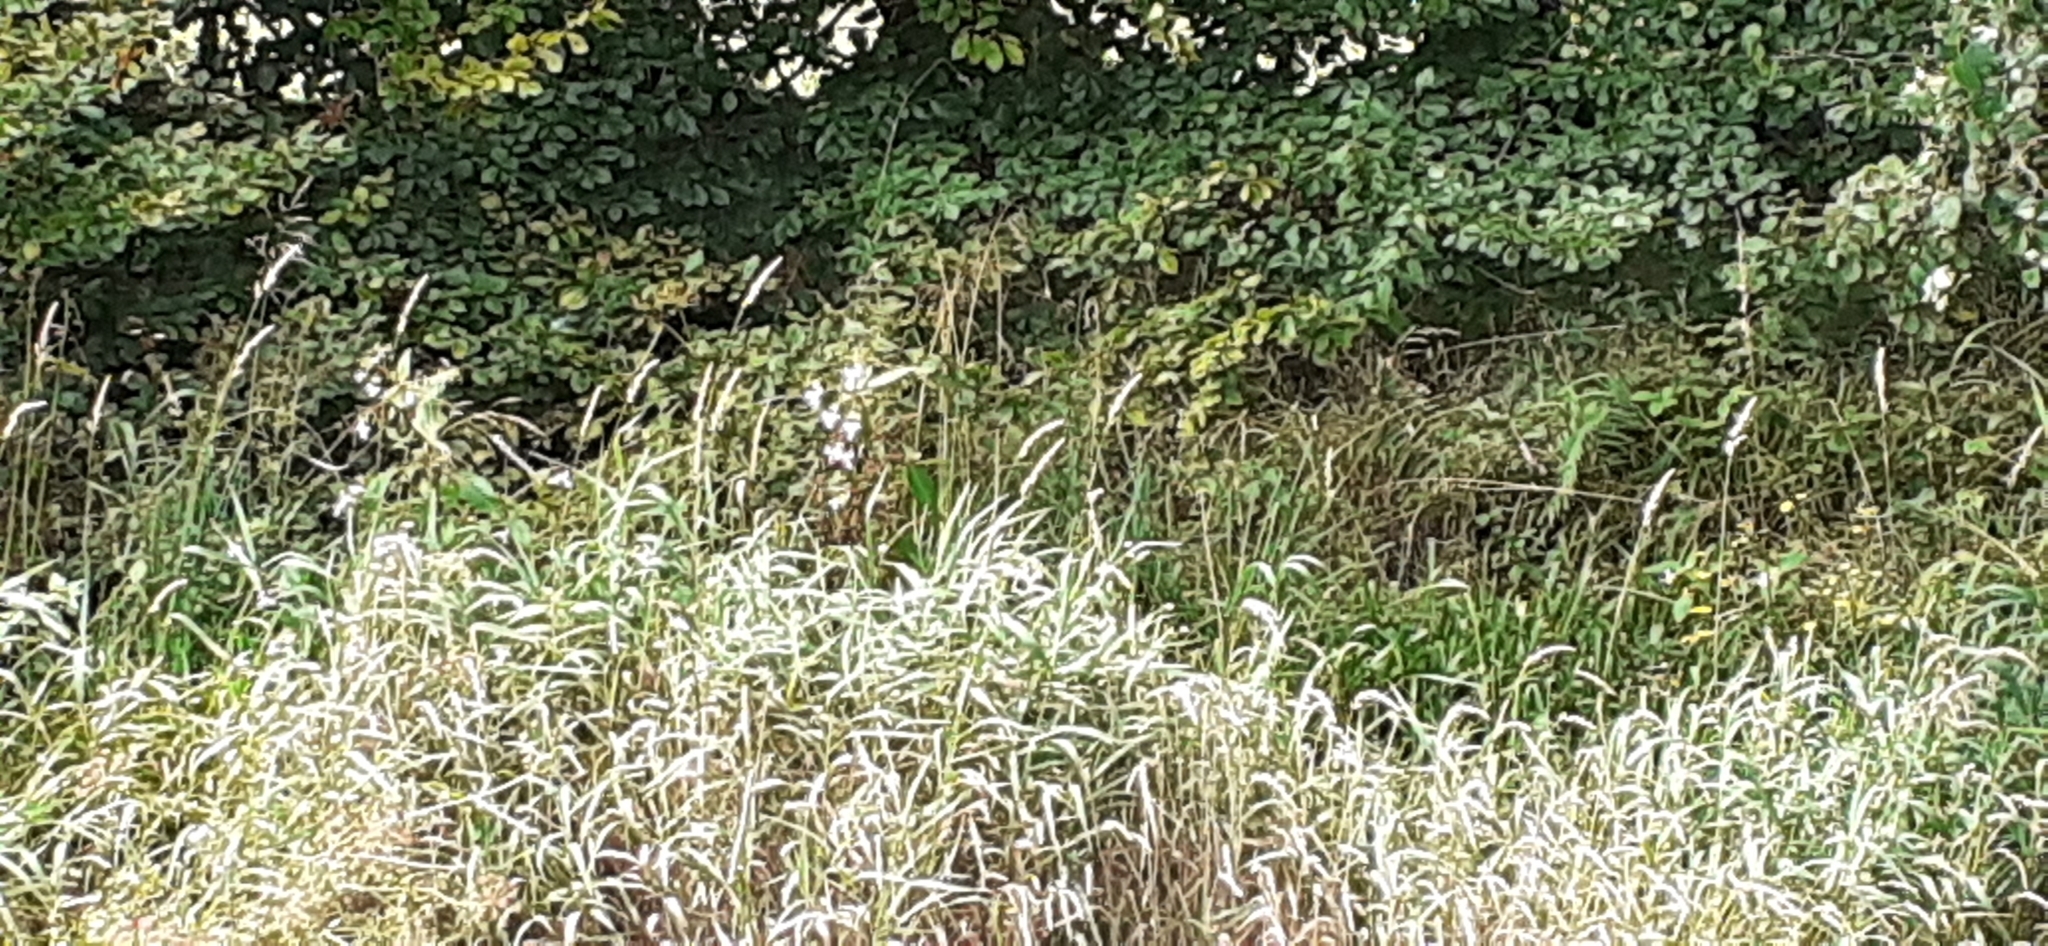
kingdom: Plantae
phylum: Tracheophyta
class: Magnoliopsida
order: Ericales
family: Balsaminaceae
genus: Impatiens
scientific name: Impatiens glandulifera
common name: Himalayan balsam
